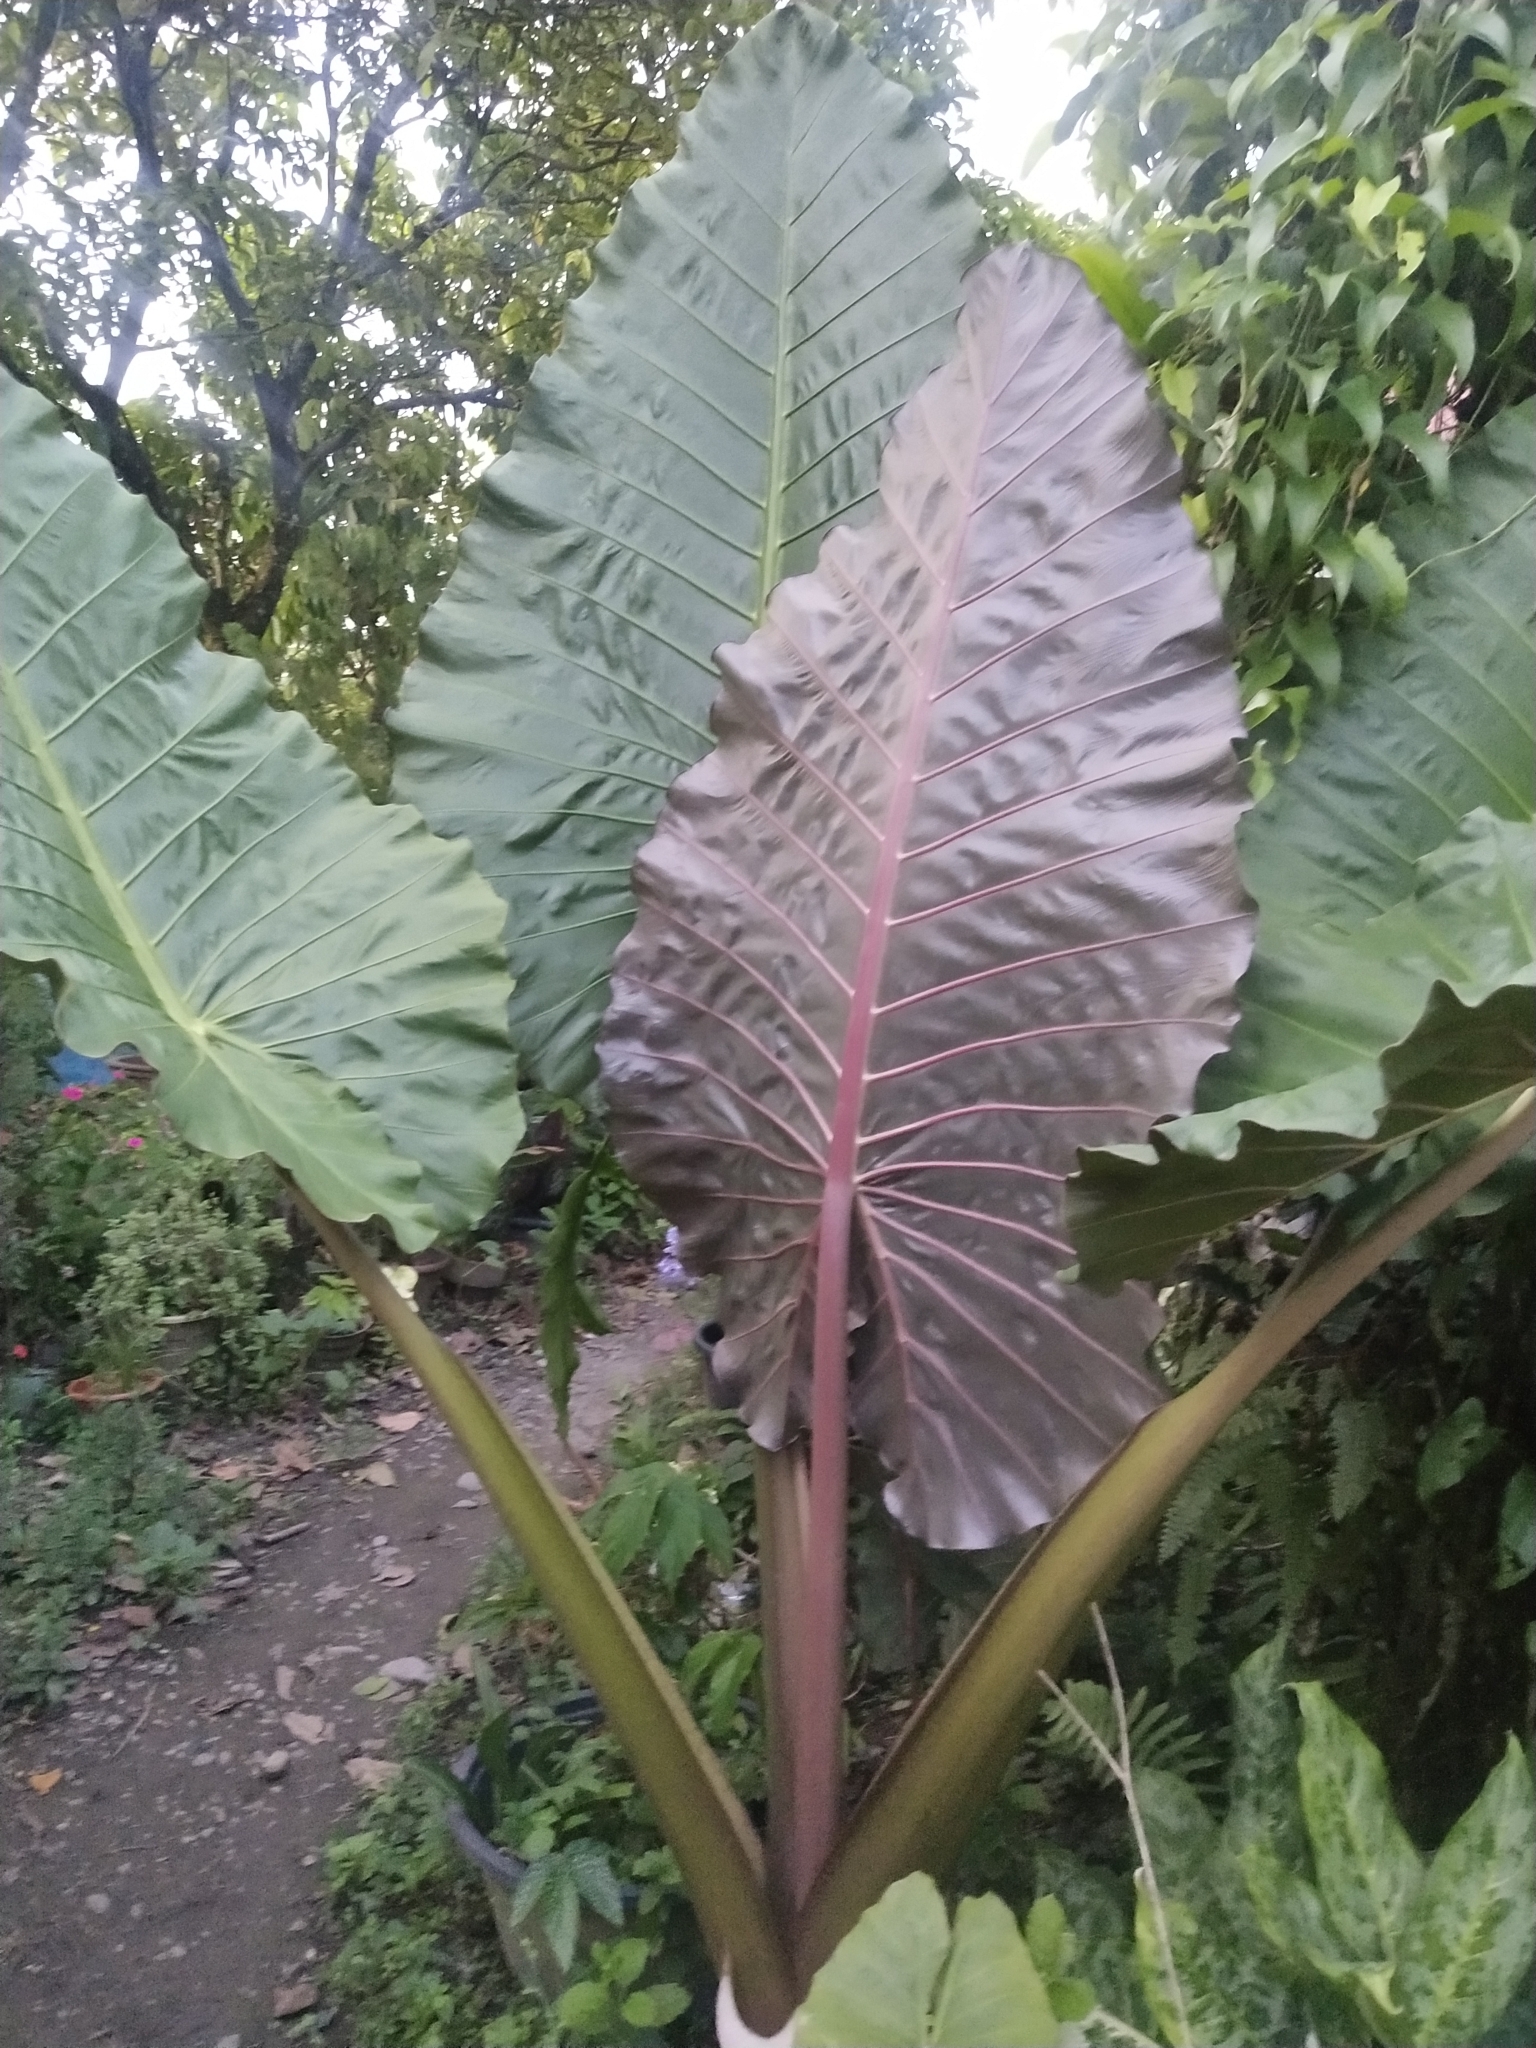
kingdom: Plantae
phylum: Tracheophyta
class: Liliopsida
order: Alismatales
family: Araceae
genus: Alocasia
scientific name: Alocasia macrorrhizos
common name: Giant taro
